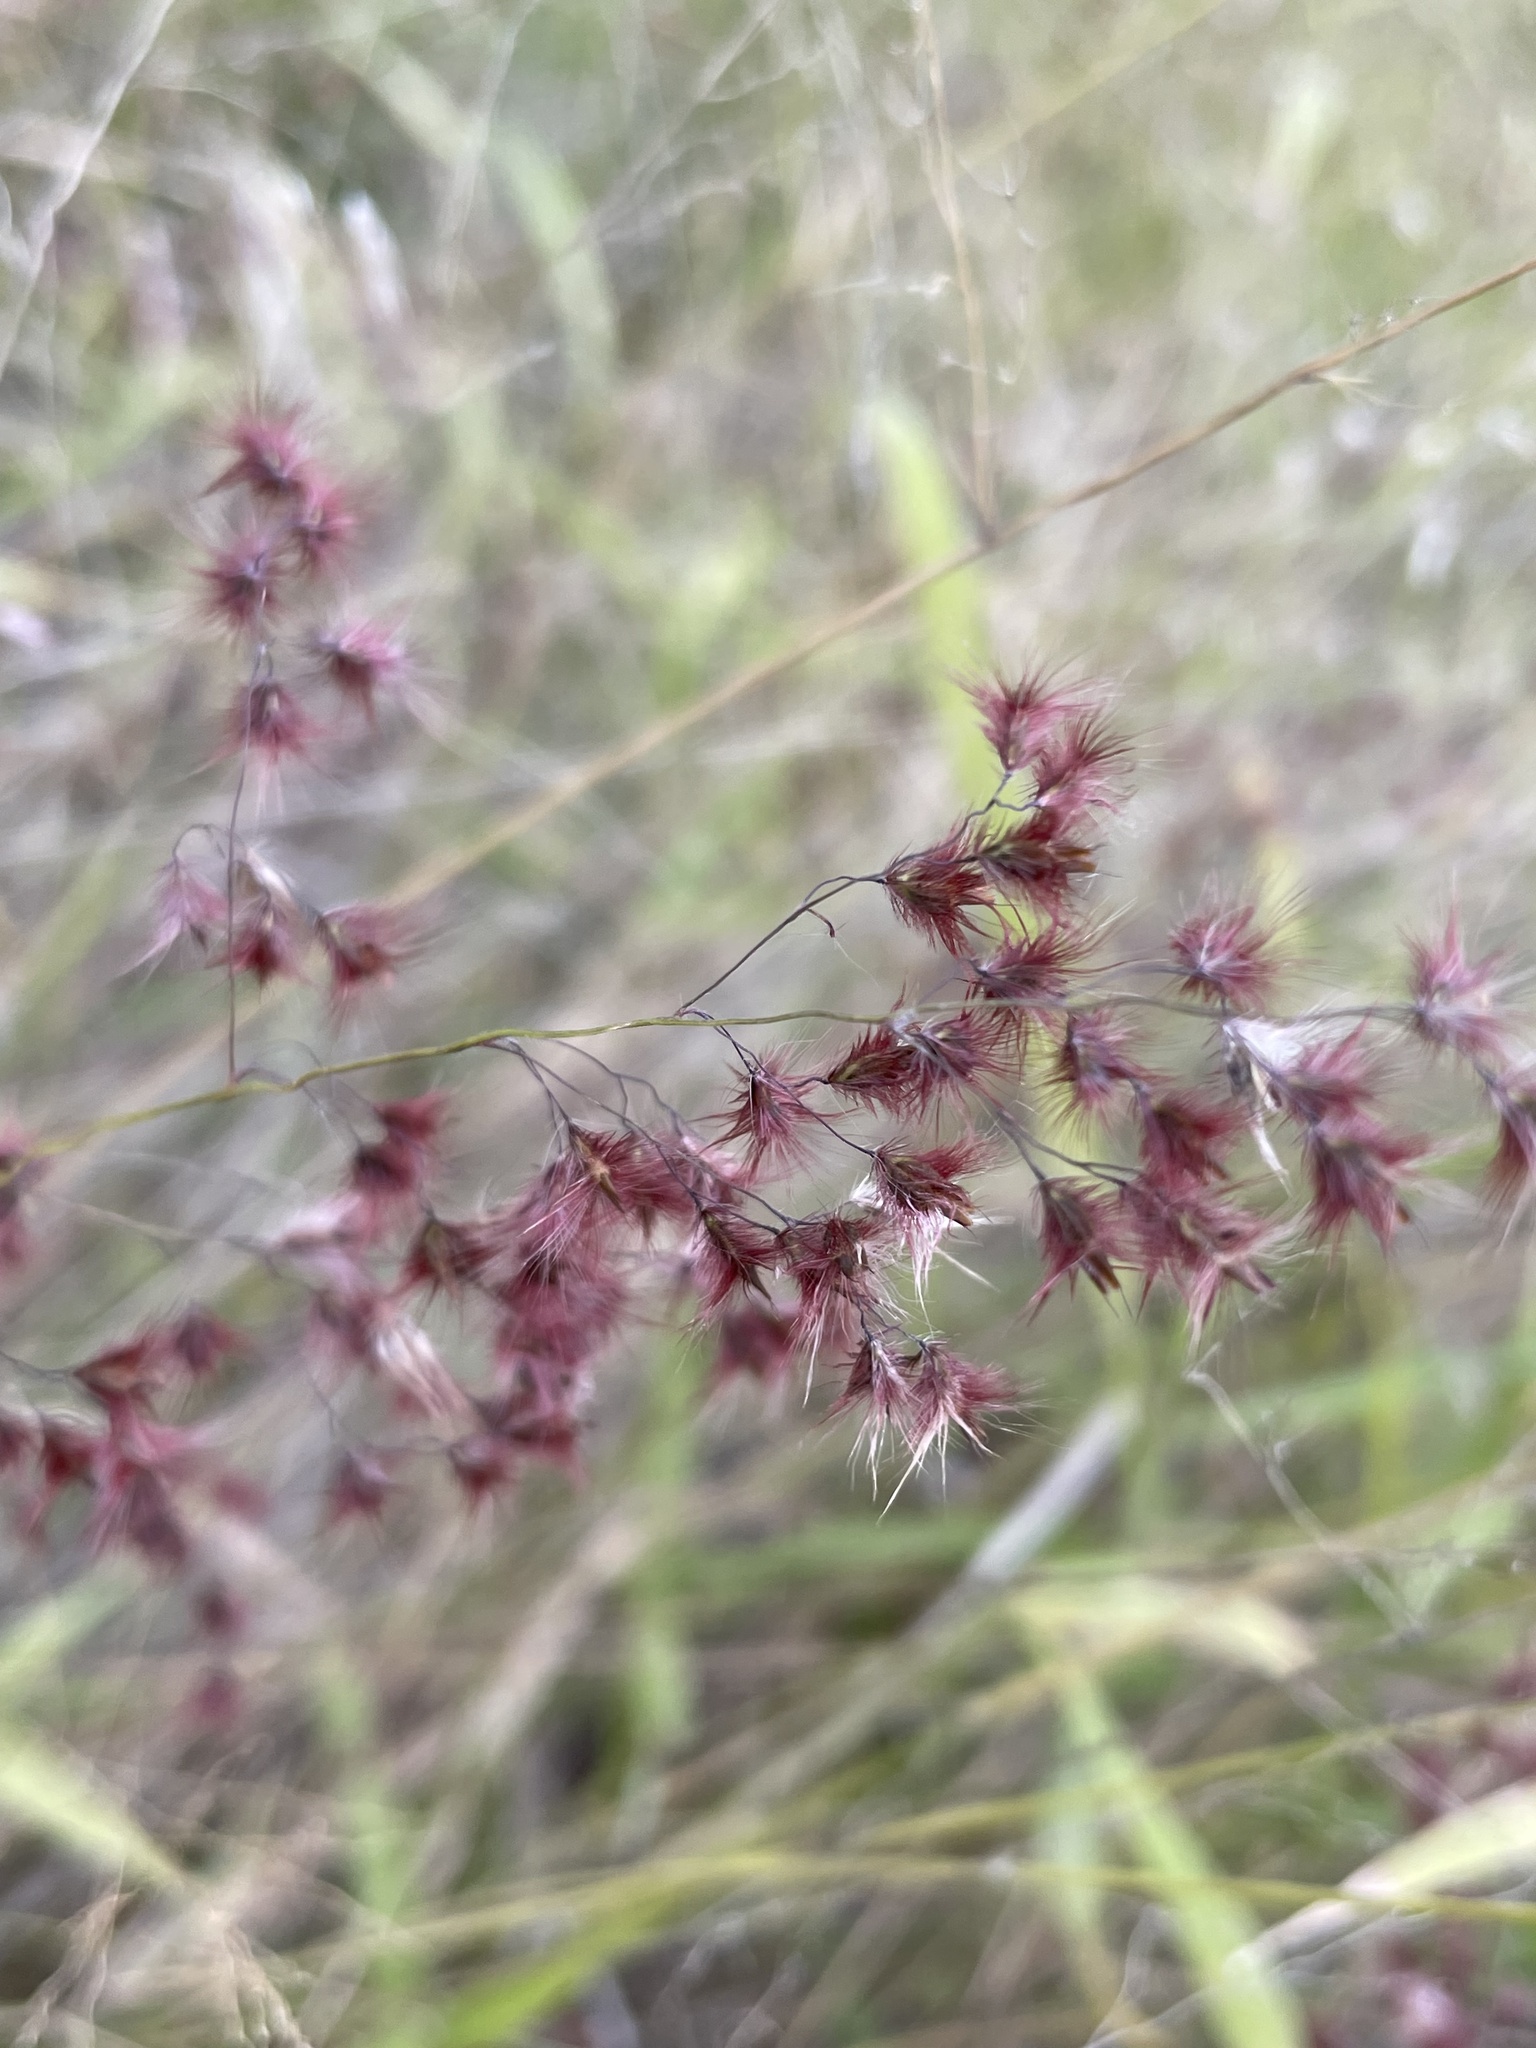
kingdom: Plantae
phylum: Tracheophyta
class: Liliopsida
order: Poales
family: Poaceae
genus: Melinis
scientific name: Melinis repens
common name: Rose natal grass
